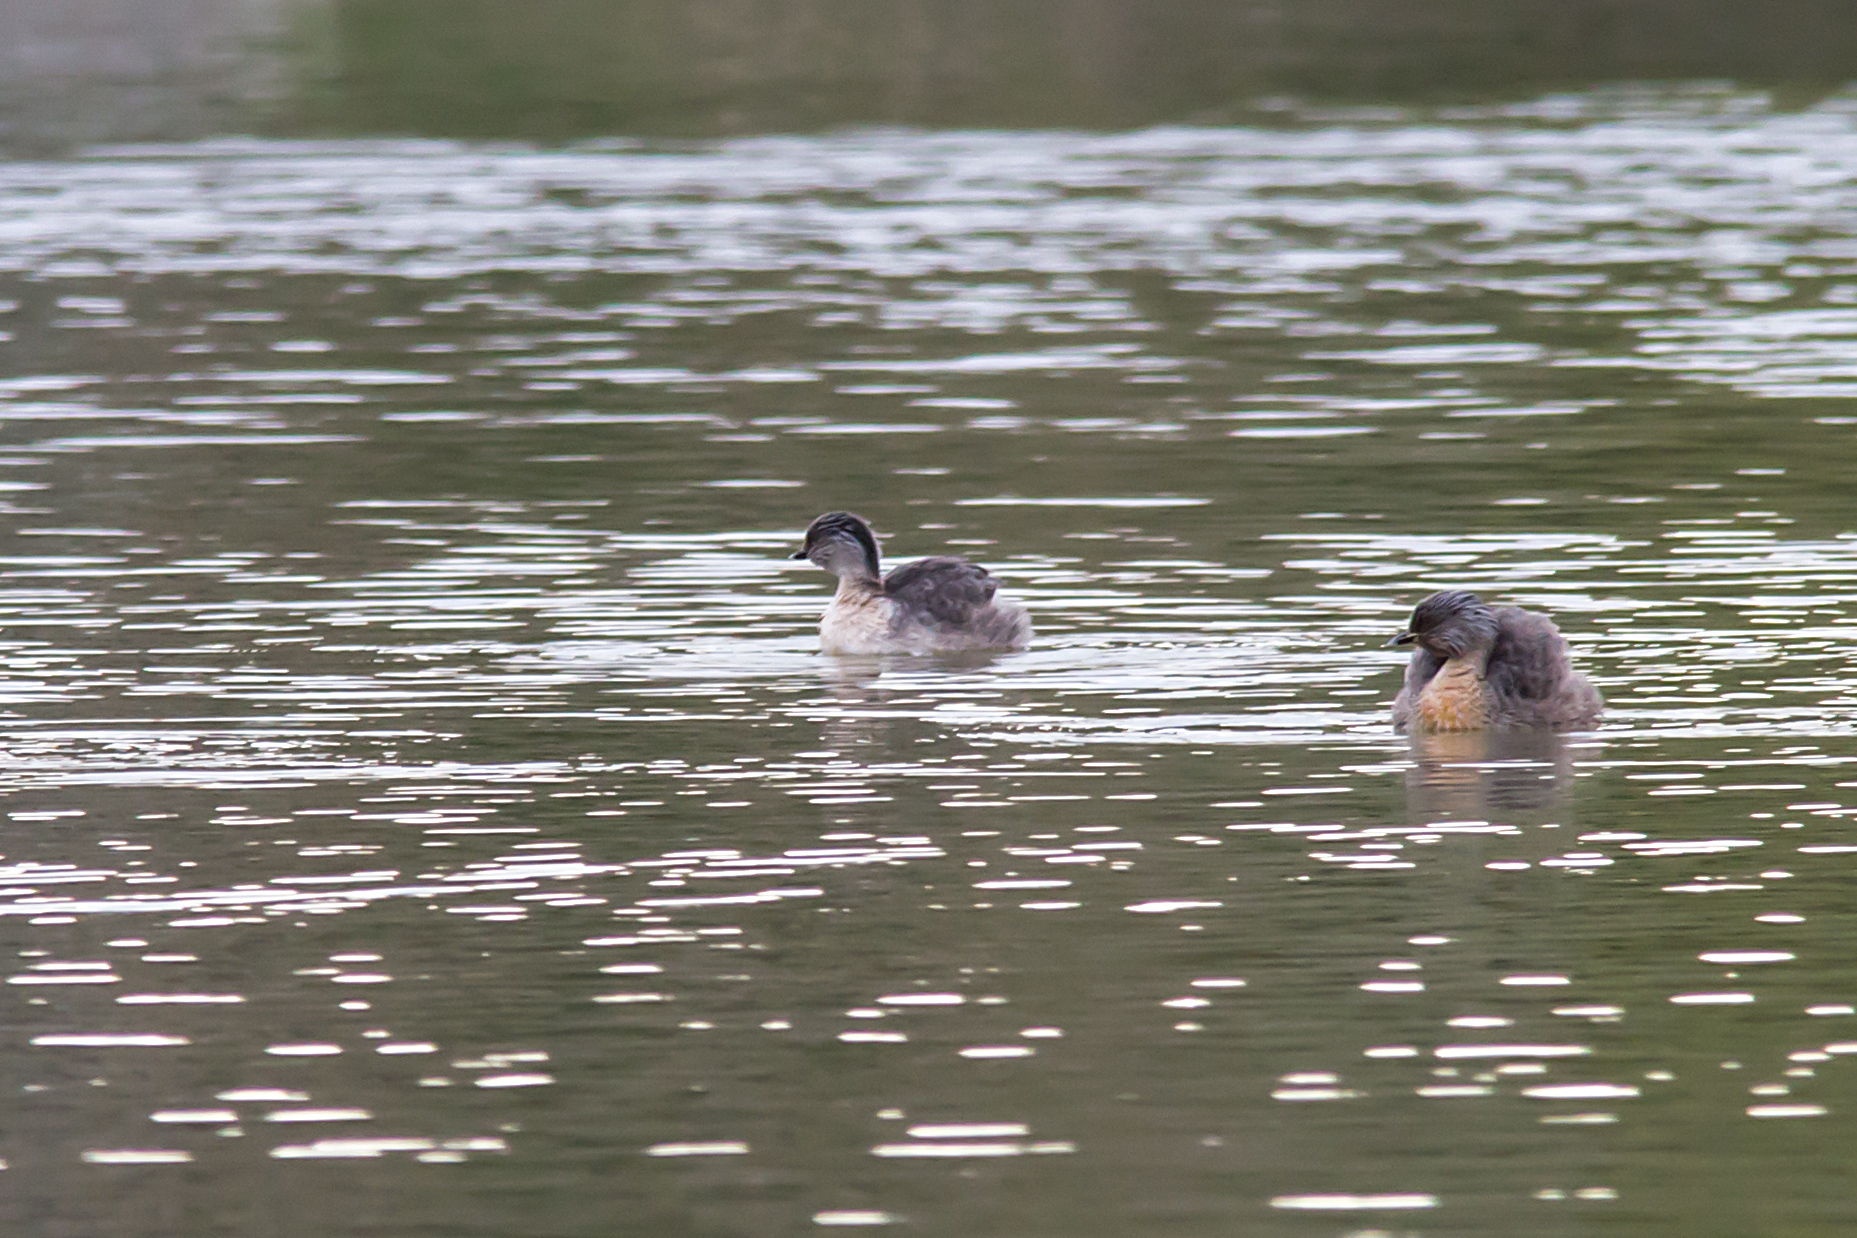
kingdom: Animalia
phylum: Chordata
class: Aves
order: Podicipediformes
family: Podicipedidae
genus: Poliocephalus
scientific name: Poliocephalus poliocephalus
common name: Hoary-headed grebe
